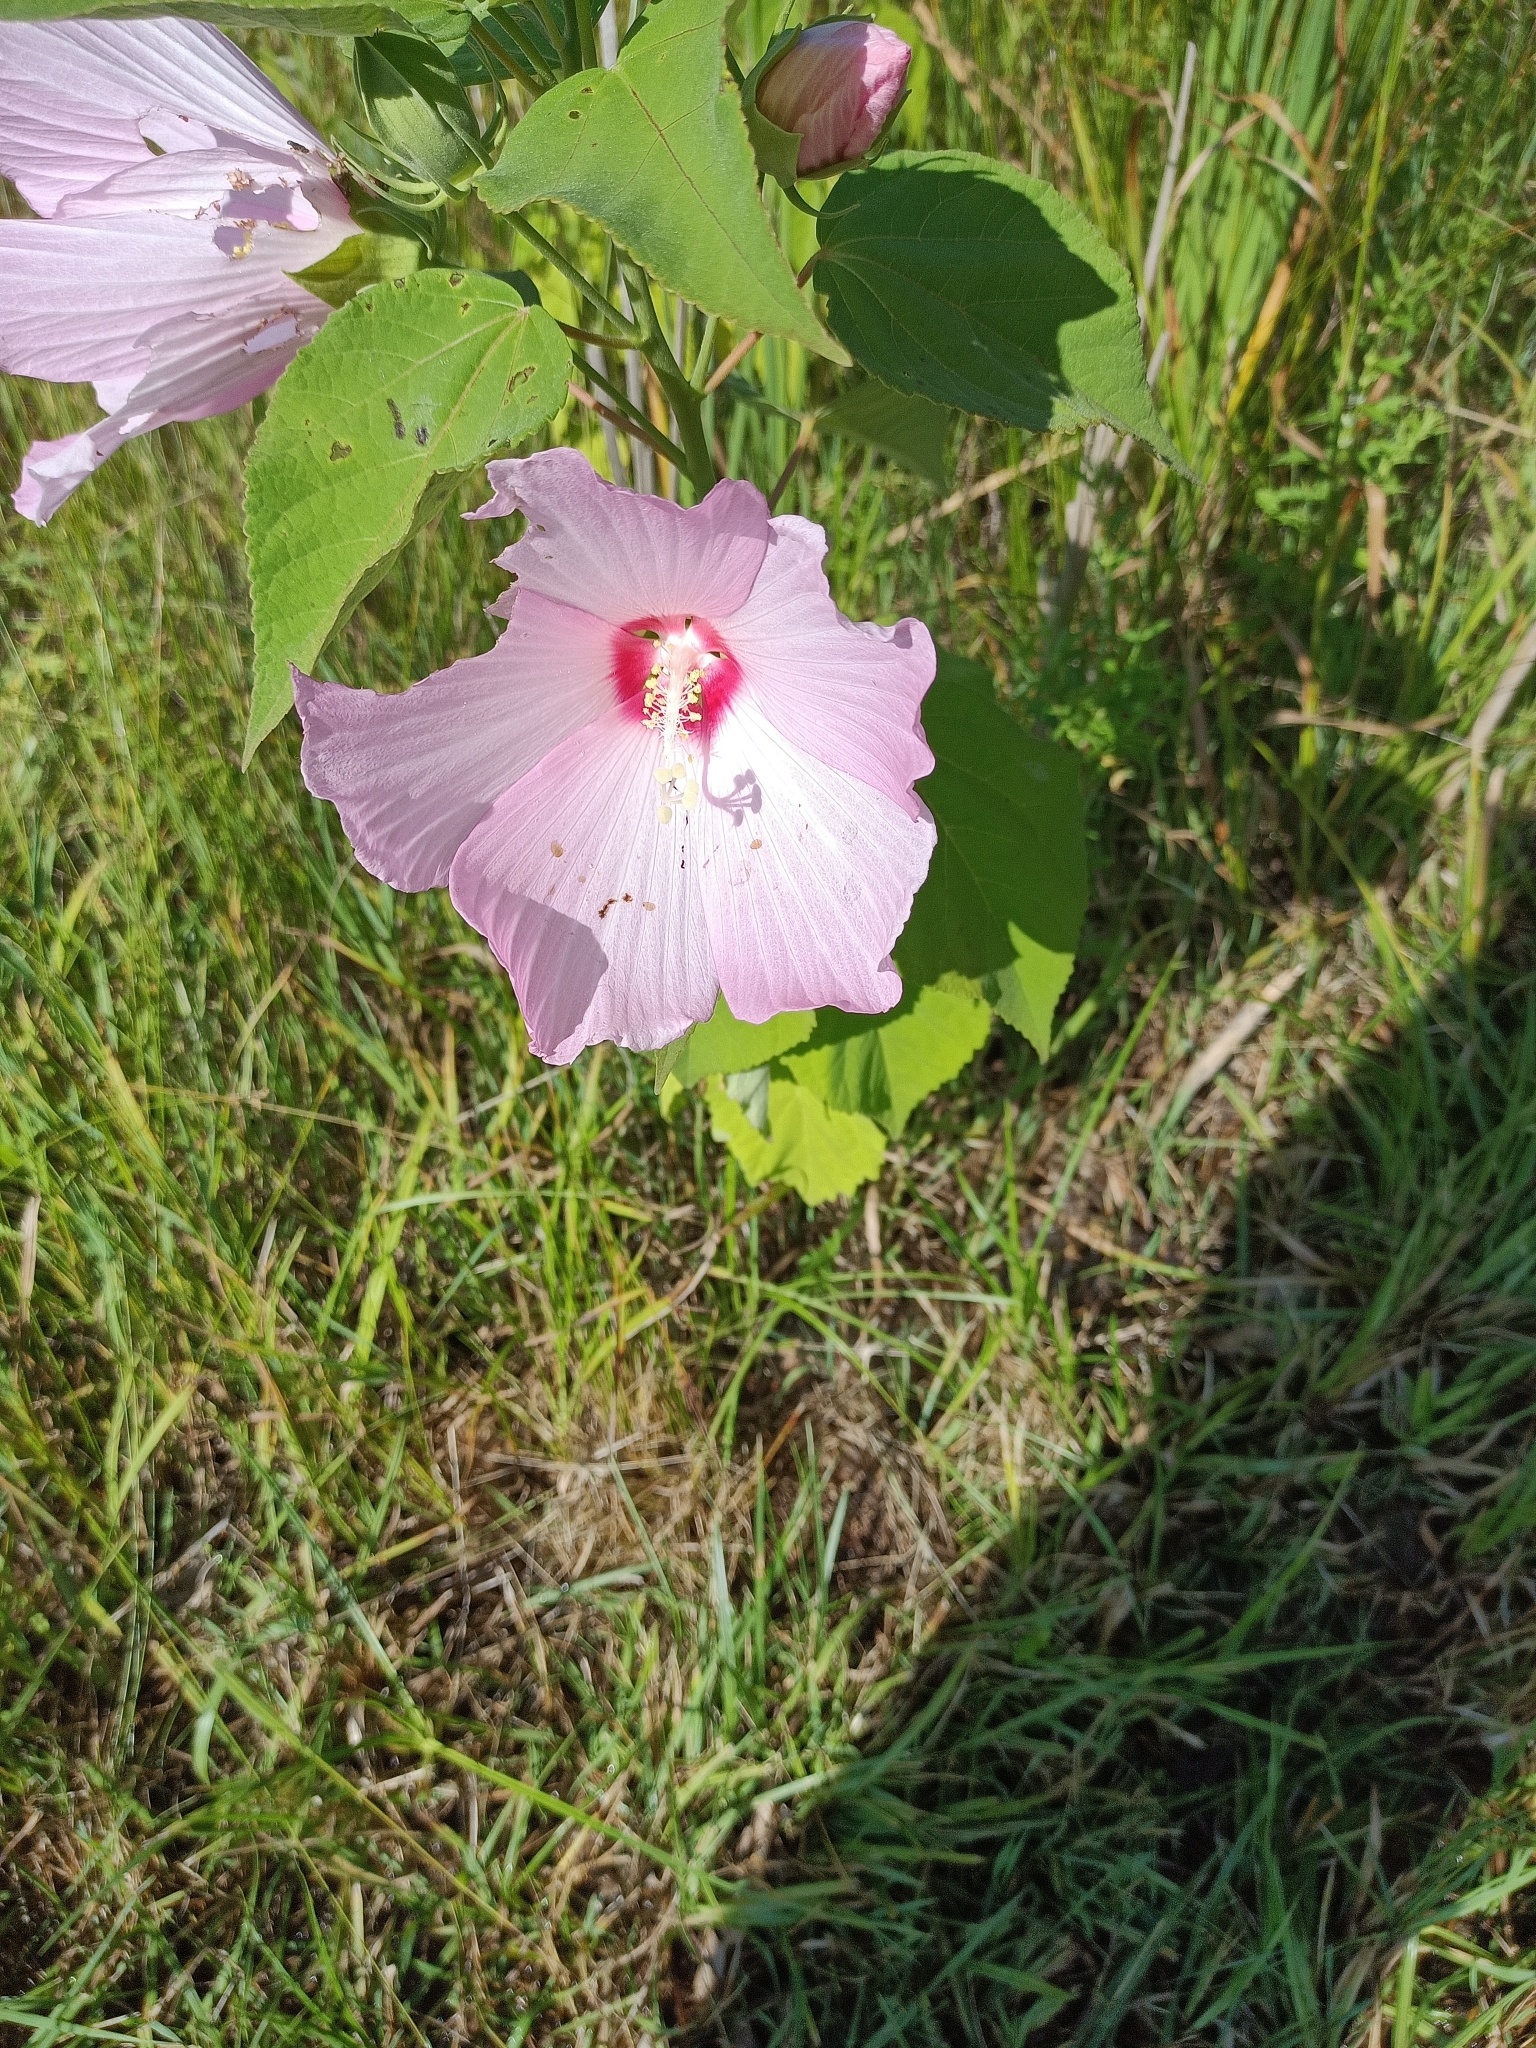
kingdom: Plantae
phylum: Tracheophyta
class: Magnoliopsida
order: Malvales
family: Malvaceae
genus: Hibiscus
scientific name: Hibiscus moscheutos
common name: Common rose-mallow
